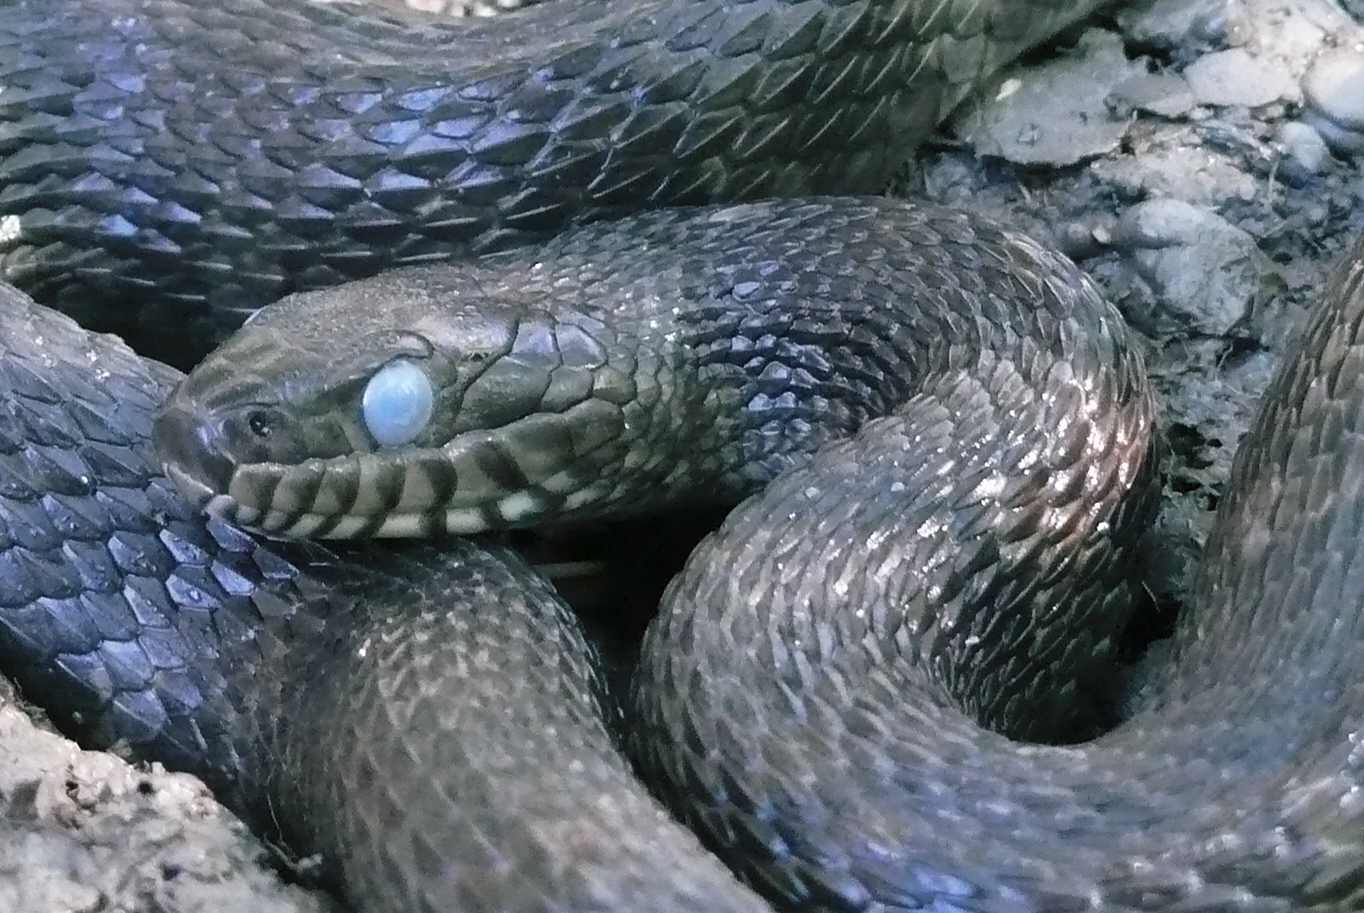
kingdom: Animalia
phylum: Chordata
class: Squamata
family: Colubridae
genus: Nerodia
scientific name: Nerodia sipedon
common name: Northern water snake
